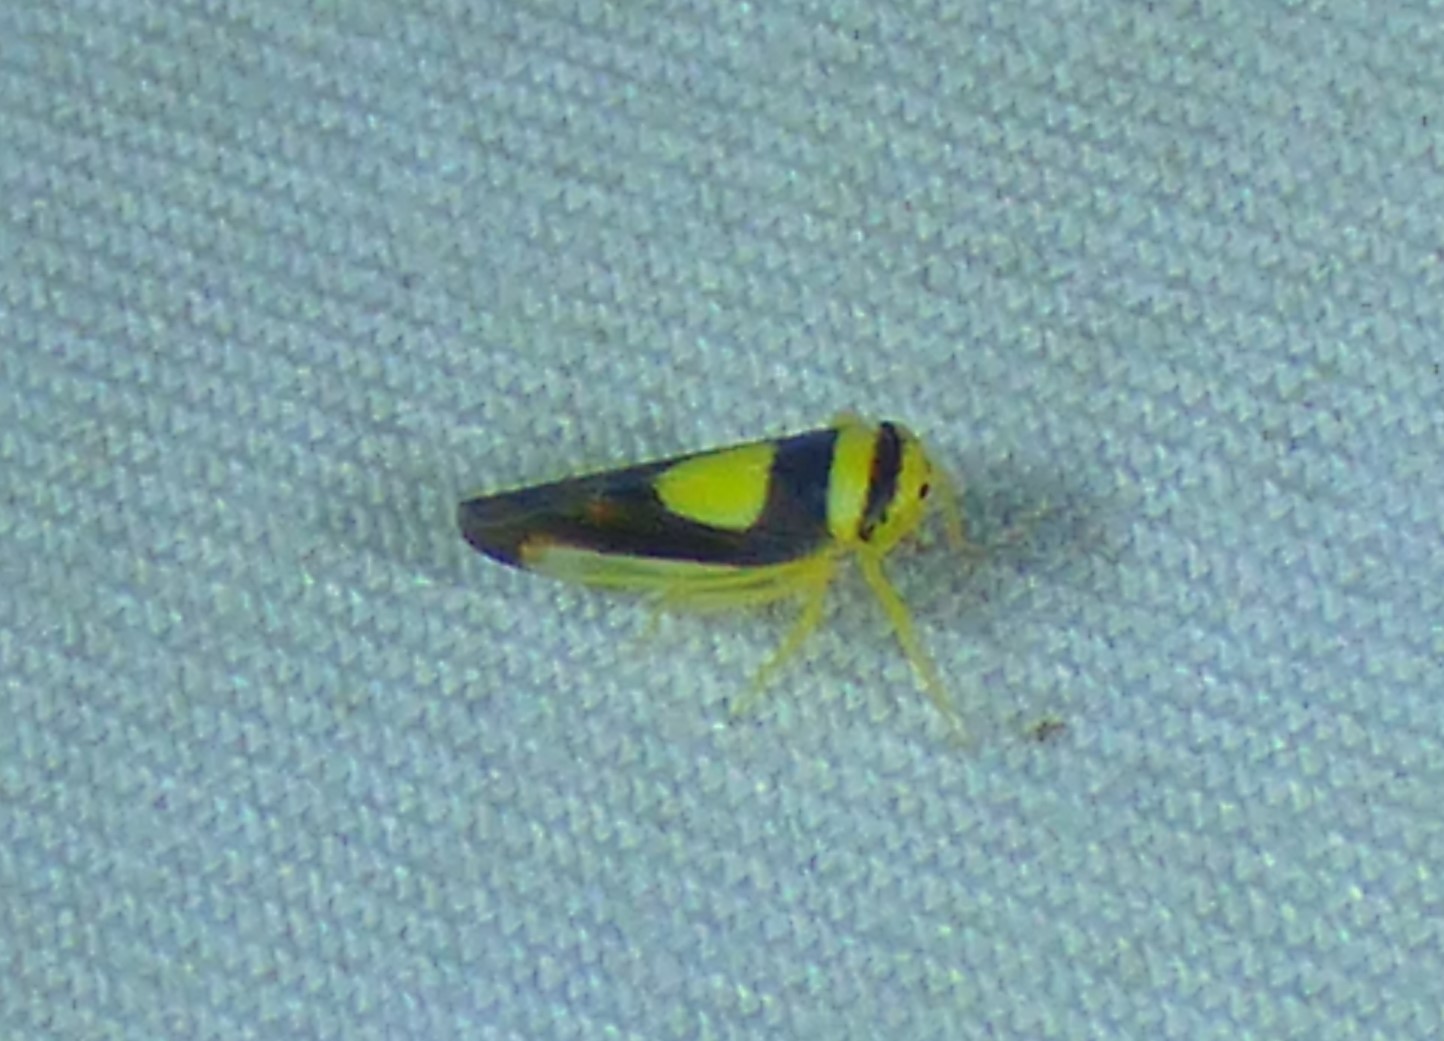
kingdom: Animalia
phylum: Arthropoda
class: Insecta
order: Hemiptera
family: Cicadellidae
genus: Colladonus
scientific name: Colladonus clitellarius
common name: The saddleback leafhopper
